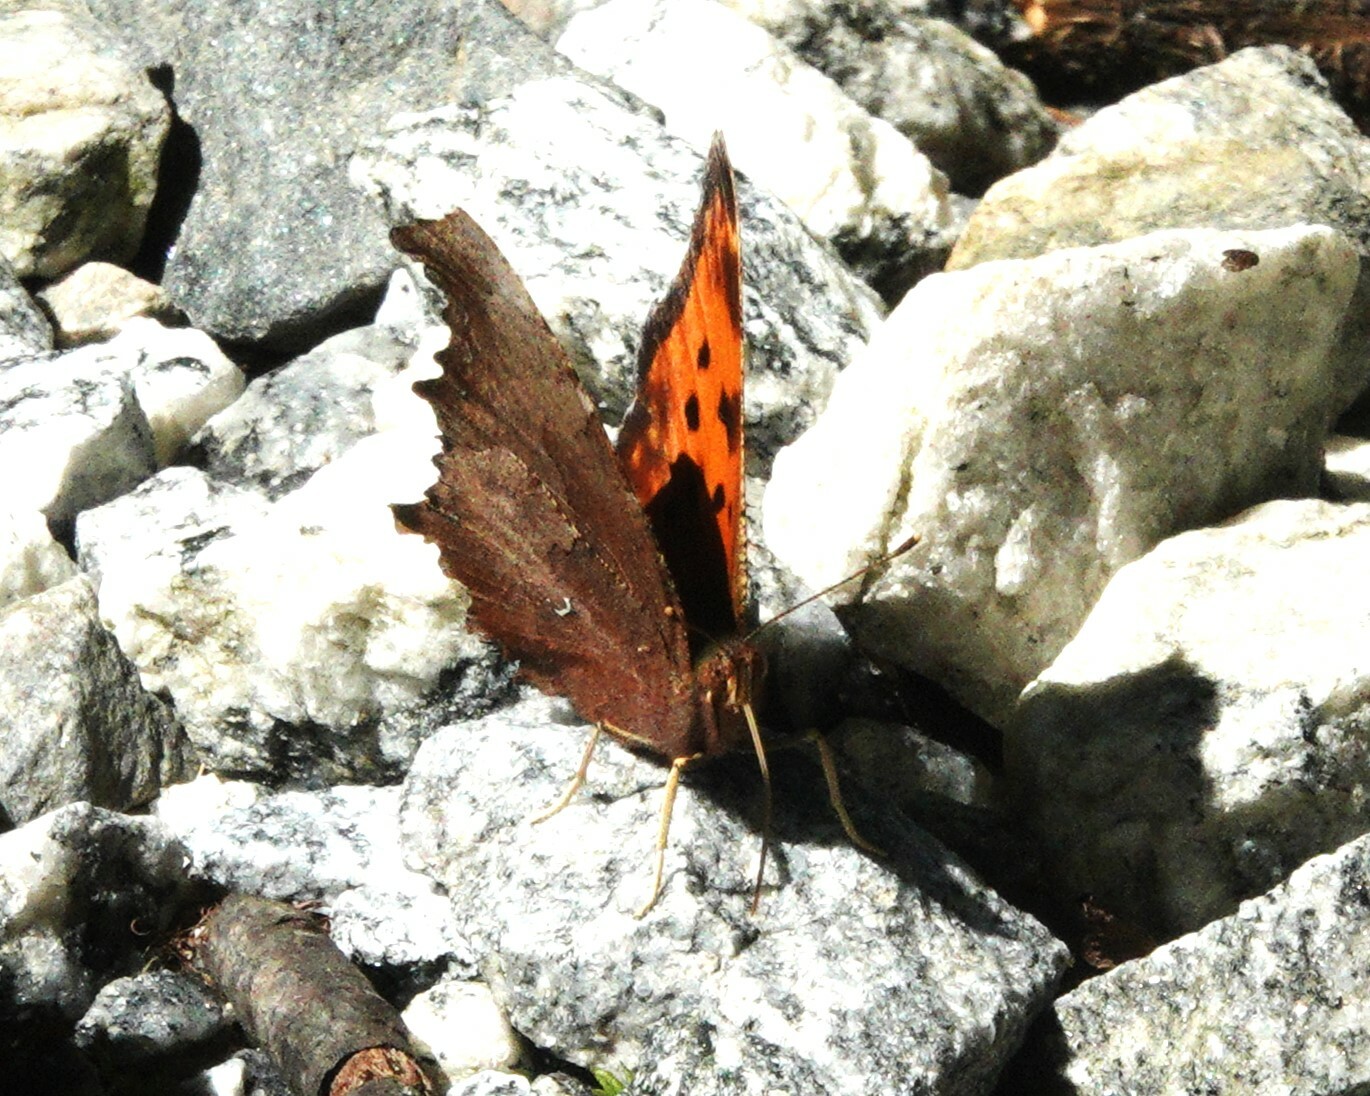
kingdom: Animalia
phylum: Arthropoda
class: Insecta
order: Lepidoptera
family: Nymphalidae
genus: Polygonia
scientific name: Polygonia comma
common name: Eastern comma
